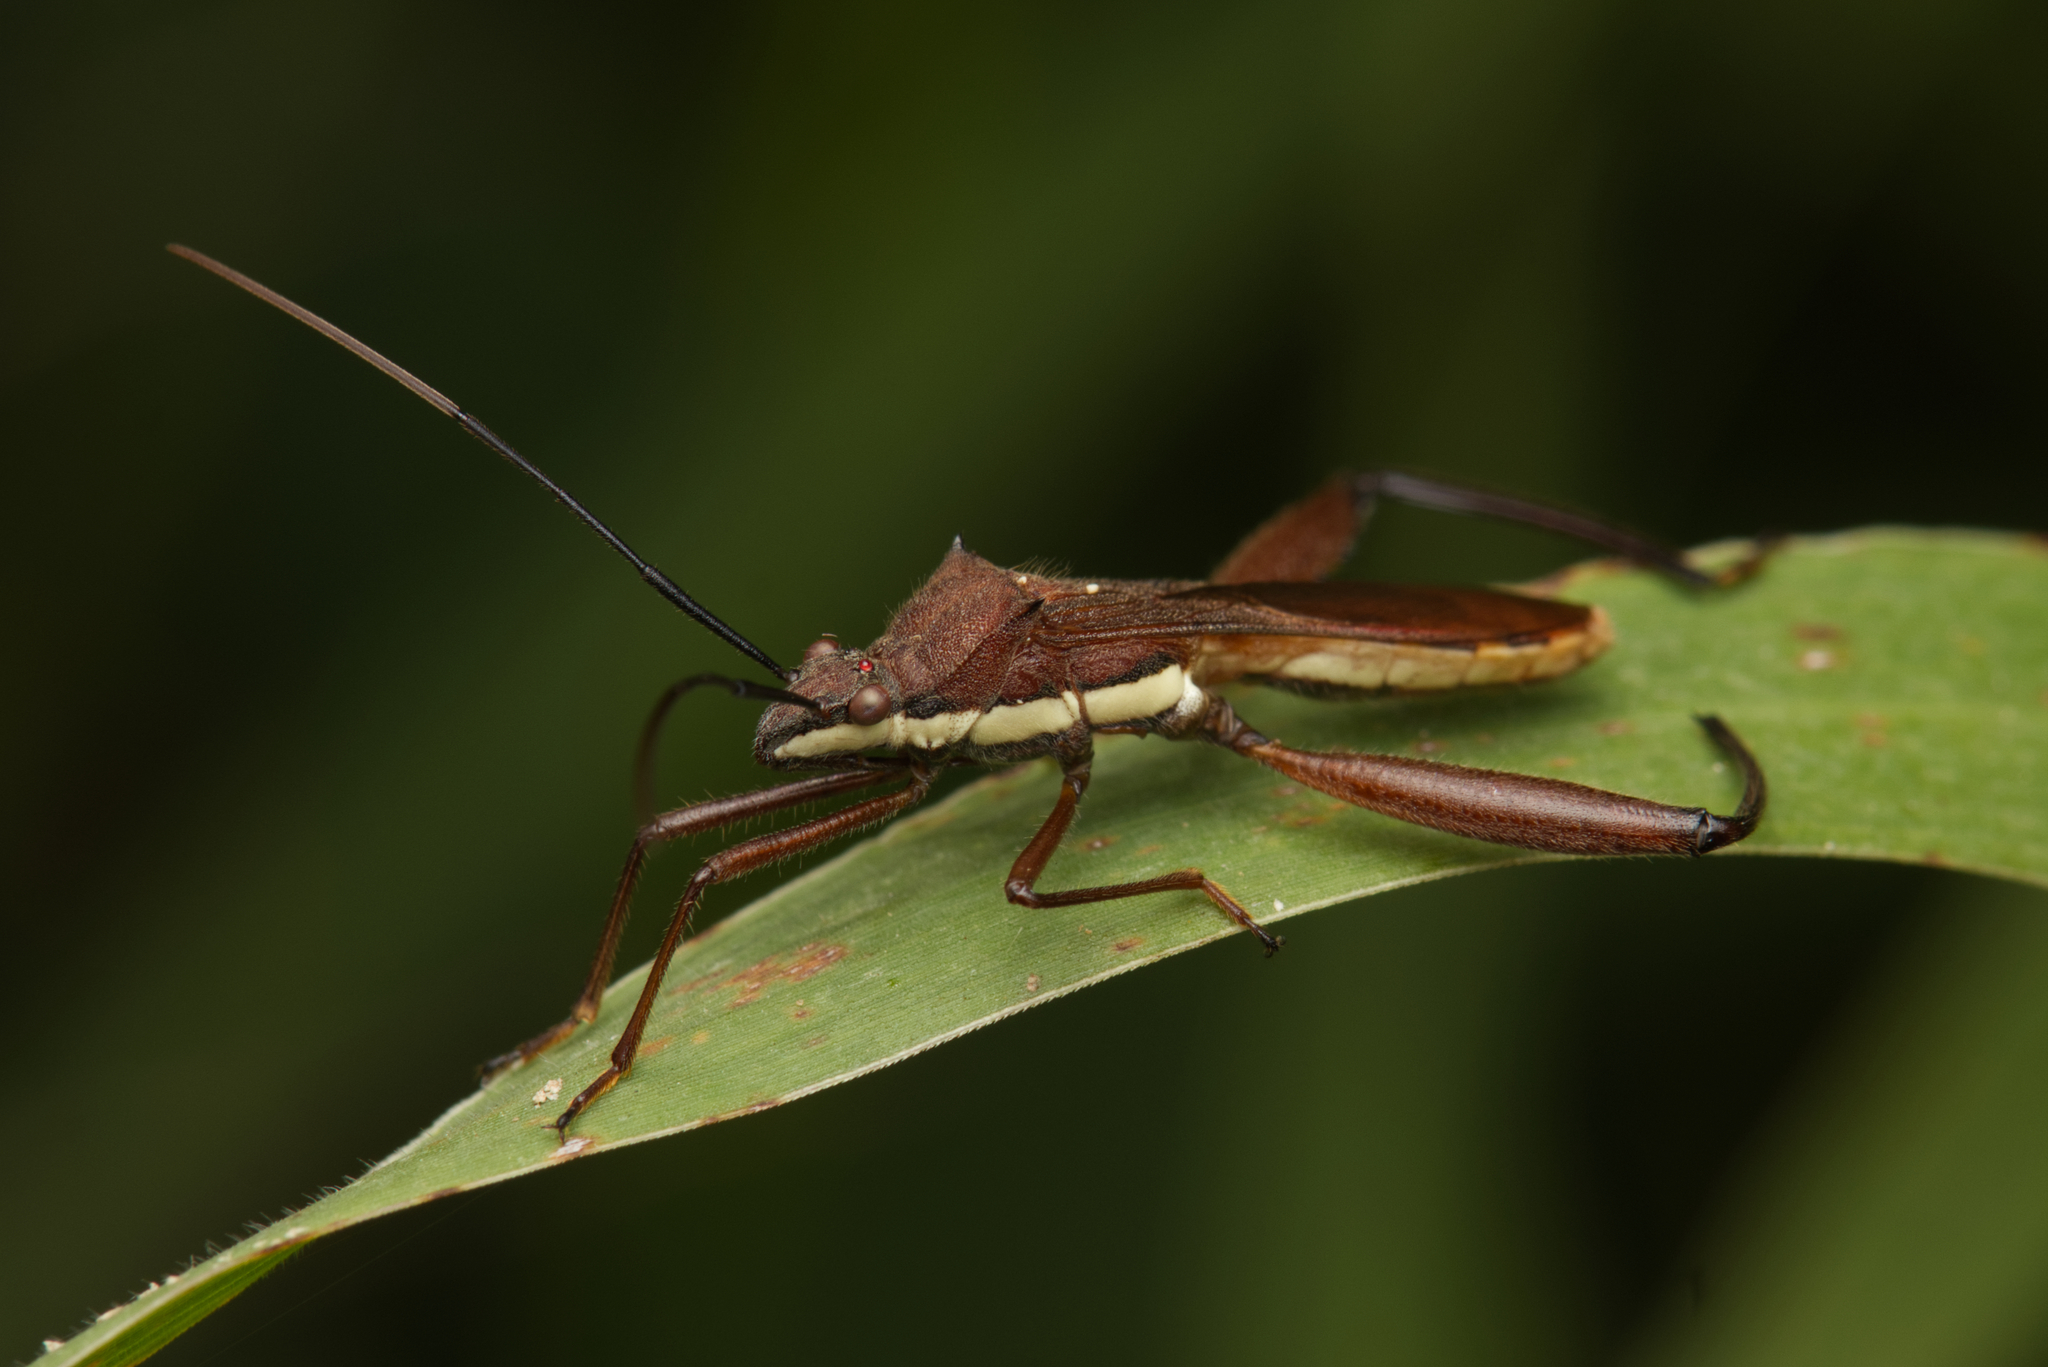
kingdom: Animalia
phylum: Arthropoda
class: Insecta
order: Hemiptera
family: Alydidae
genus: Riptortus
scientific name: Riptortus linearis
